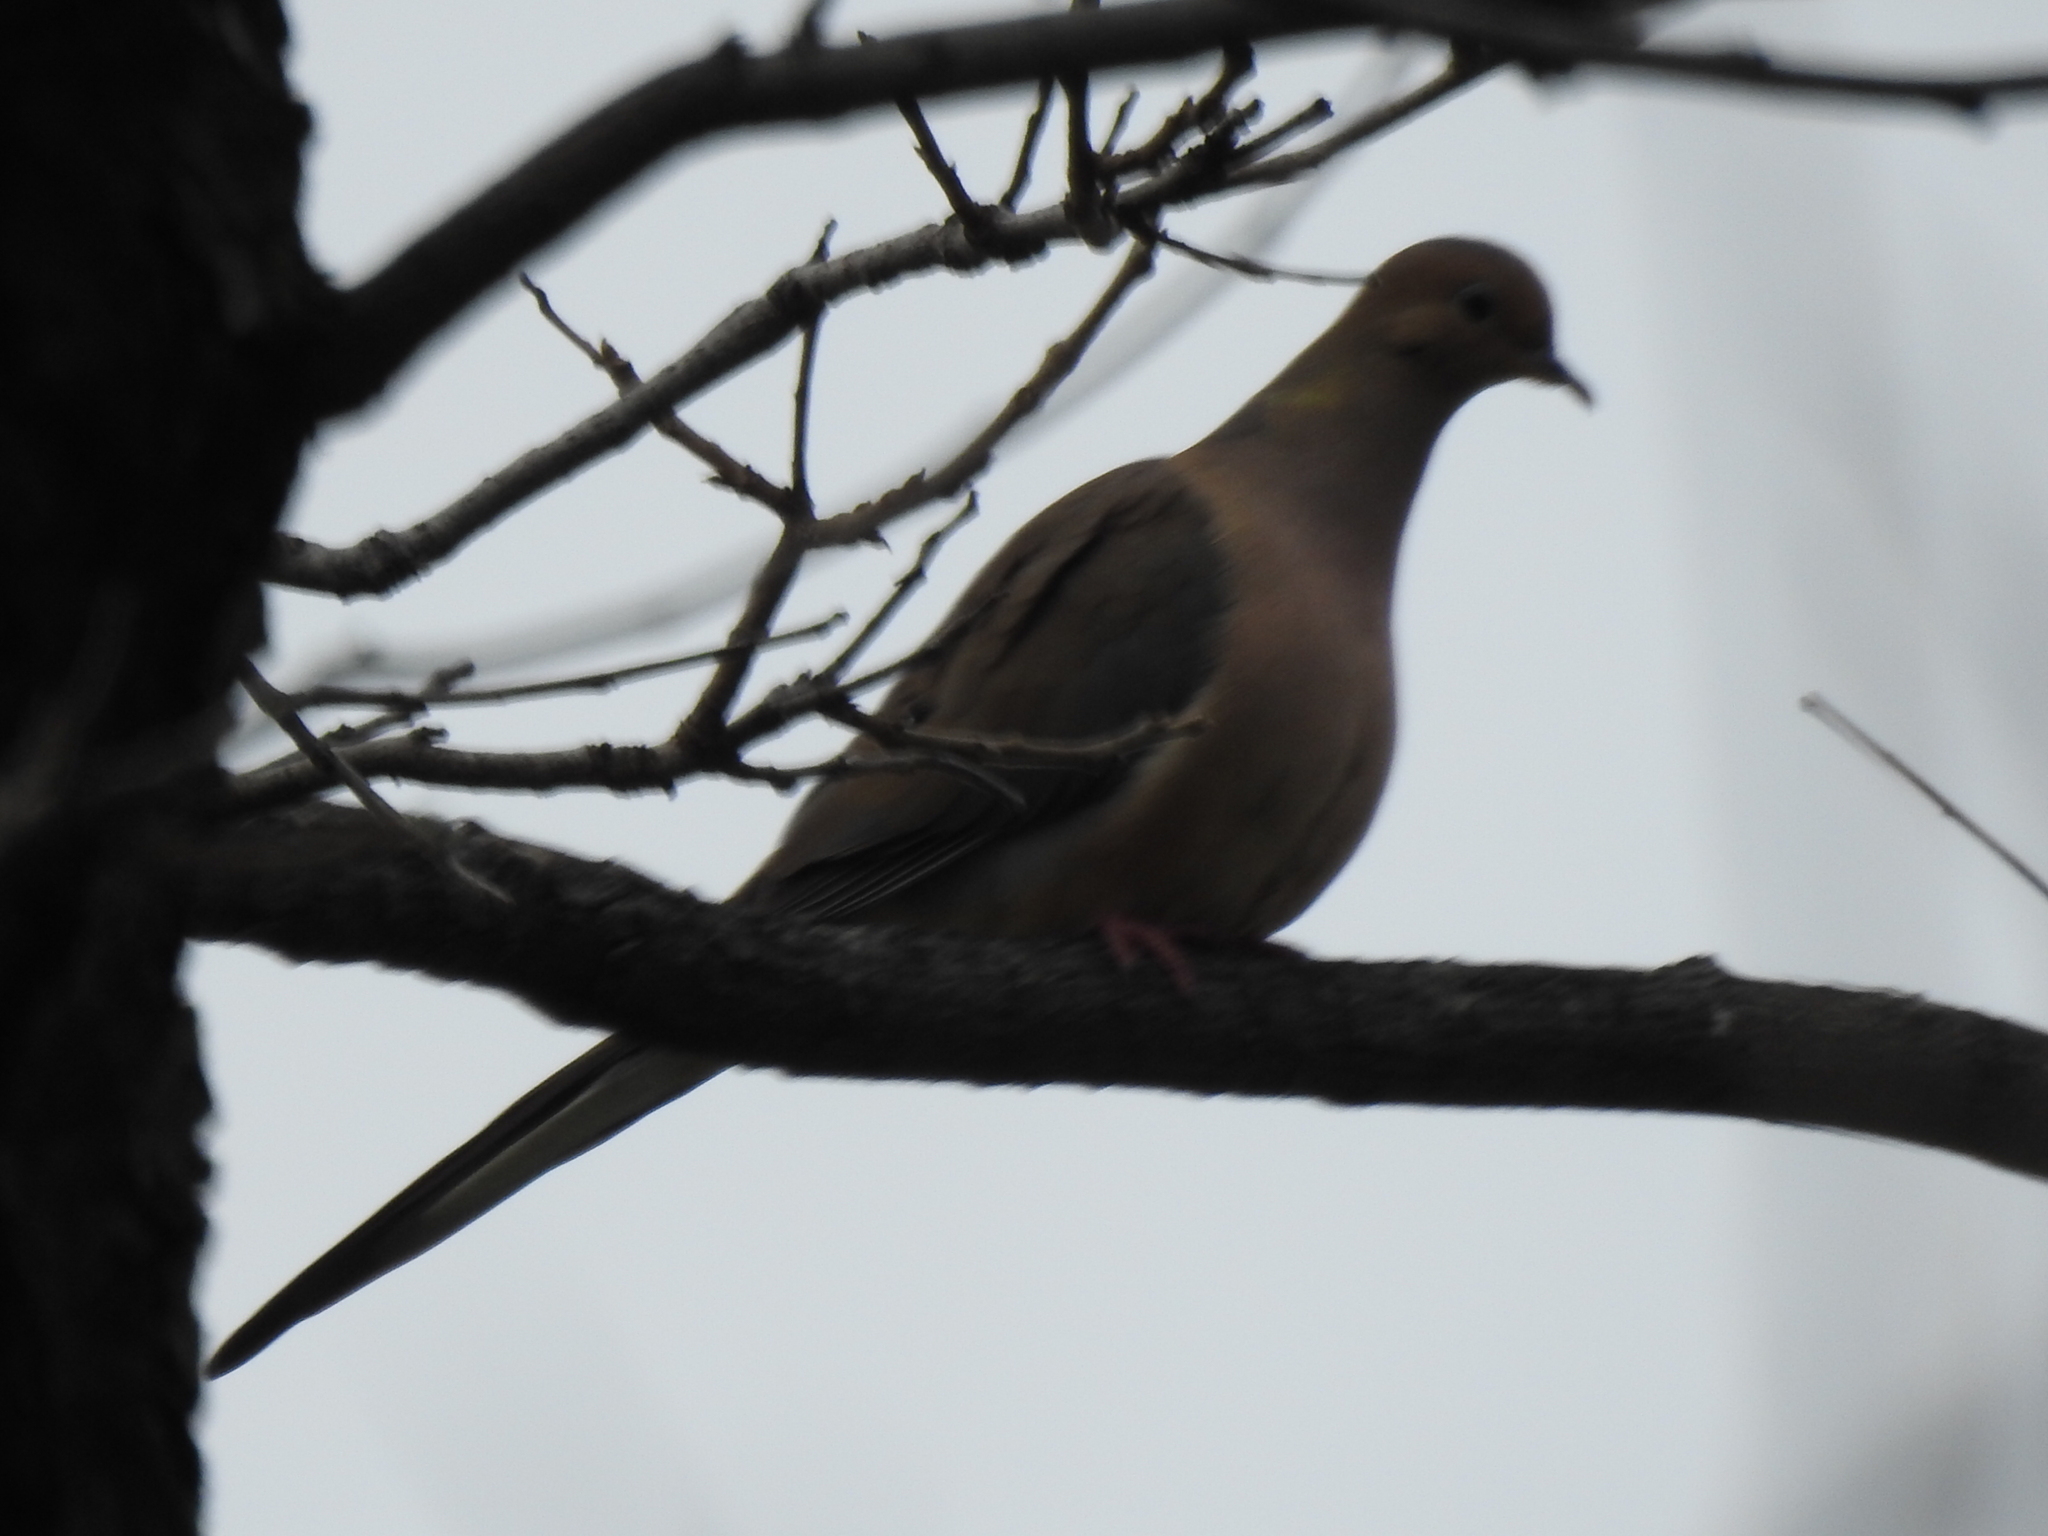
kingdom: Animalia
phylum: Chordata
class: Aves
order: Columbiformes
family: Columbidae
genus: Zenaida
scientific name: Zenaida macroura
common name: Mourning dove
